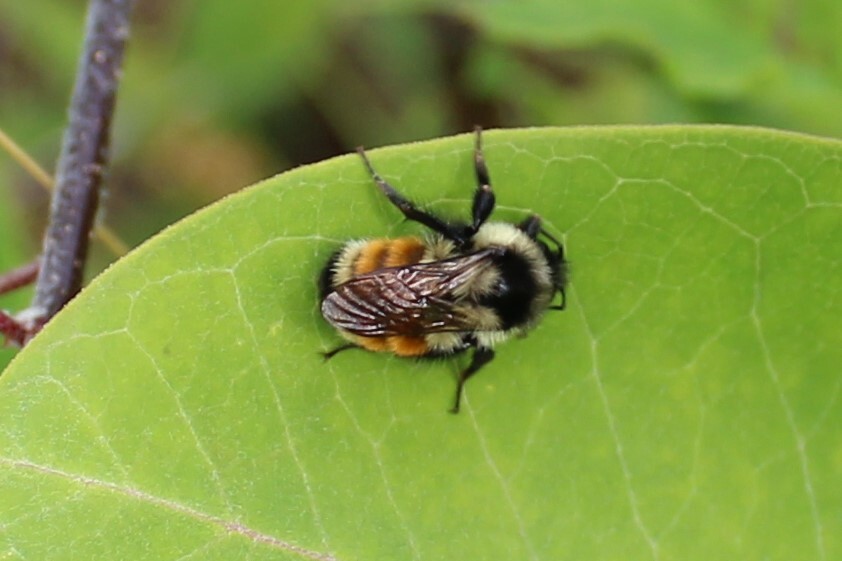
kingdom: Animalia
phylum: Arthropoda
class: Insecta
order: Hymenoptera
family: Apidae
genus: Bombus
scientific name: Bombus ternarius
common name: Tri-colored bumble bee
